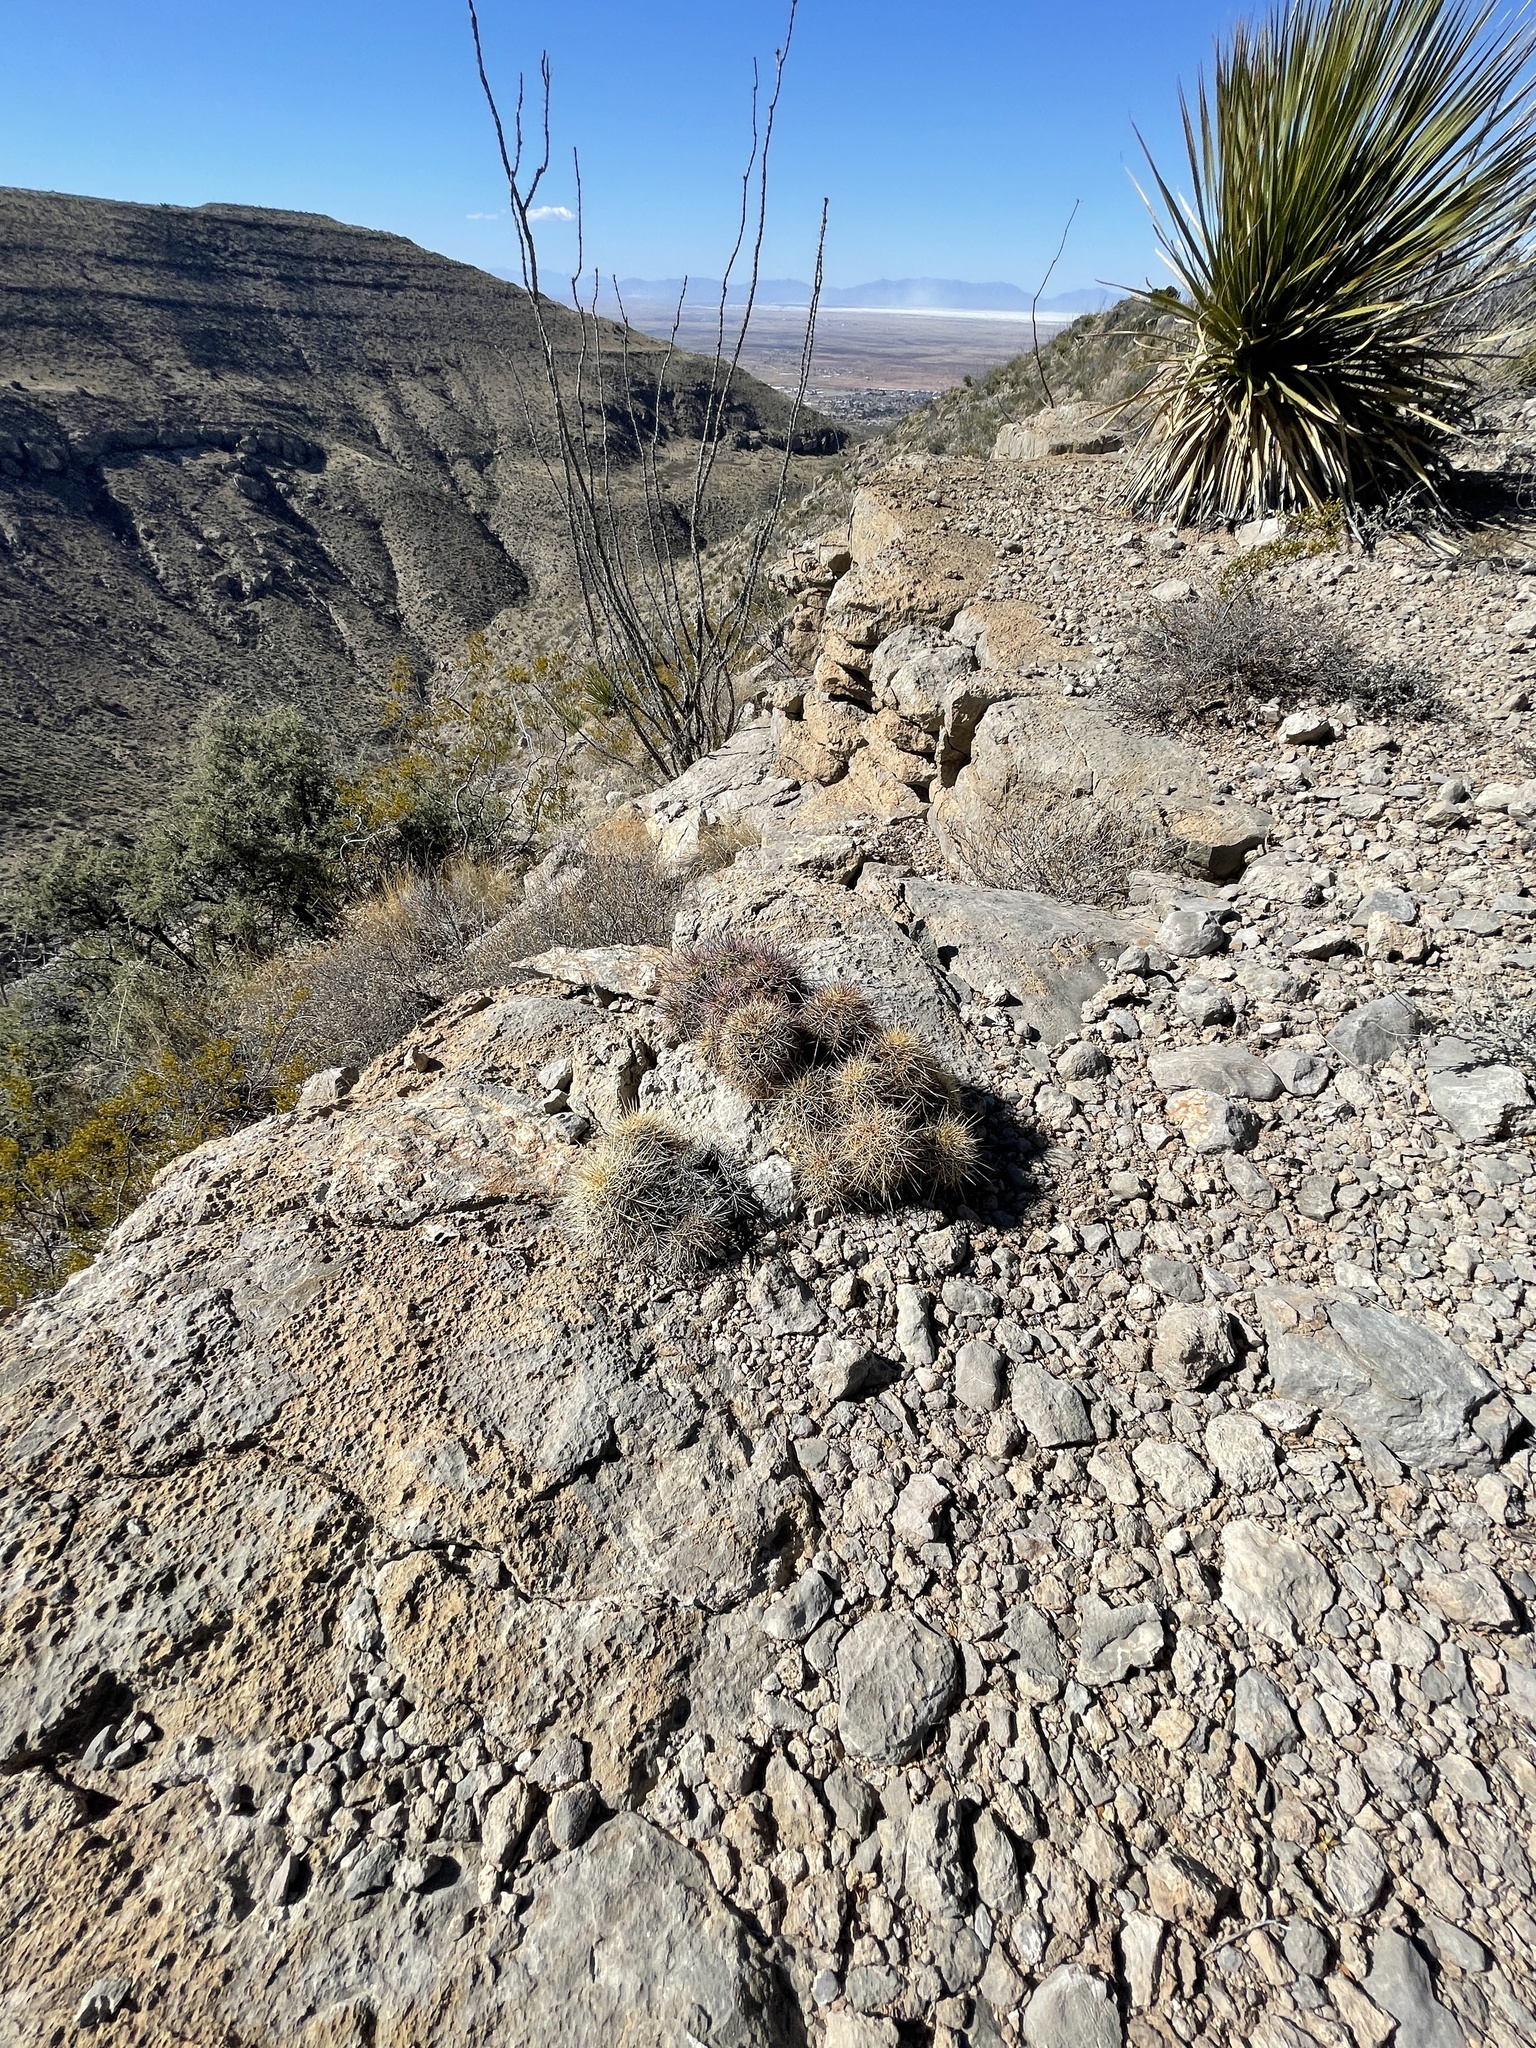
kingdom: Plantae
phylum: Tracheophyta
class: Magnoliopsida
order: Caryophyllales
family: Cactaceae
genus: Echinocereus
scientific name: Echinocereus coccineus
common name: Scarlet hedgehog cactus
